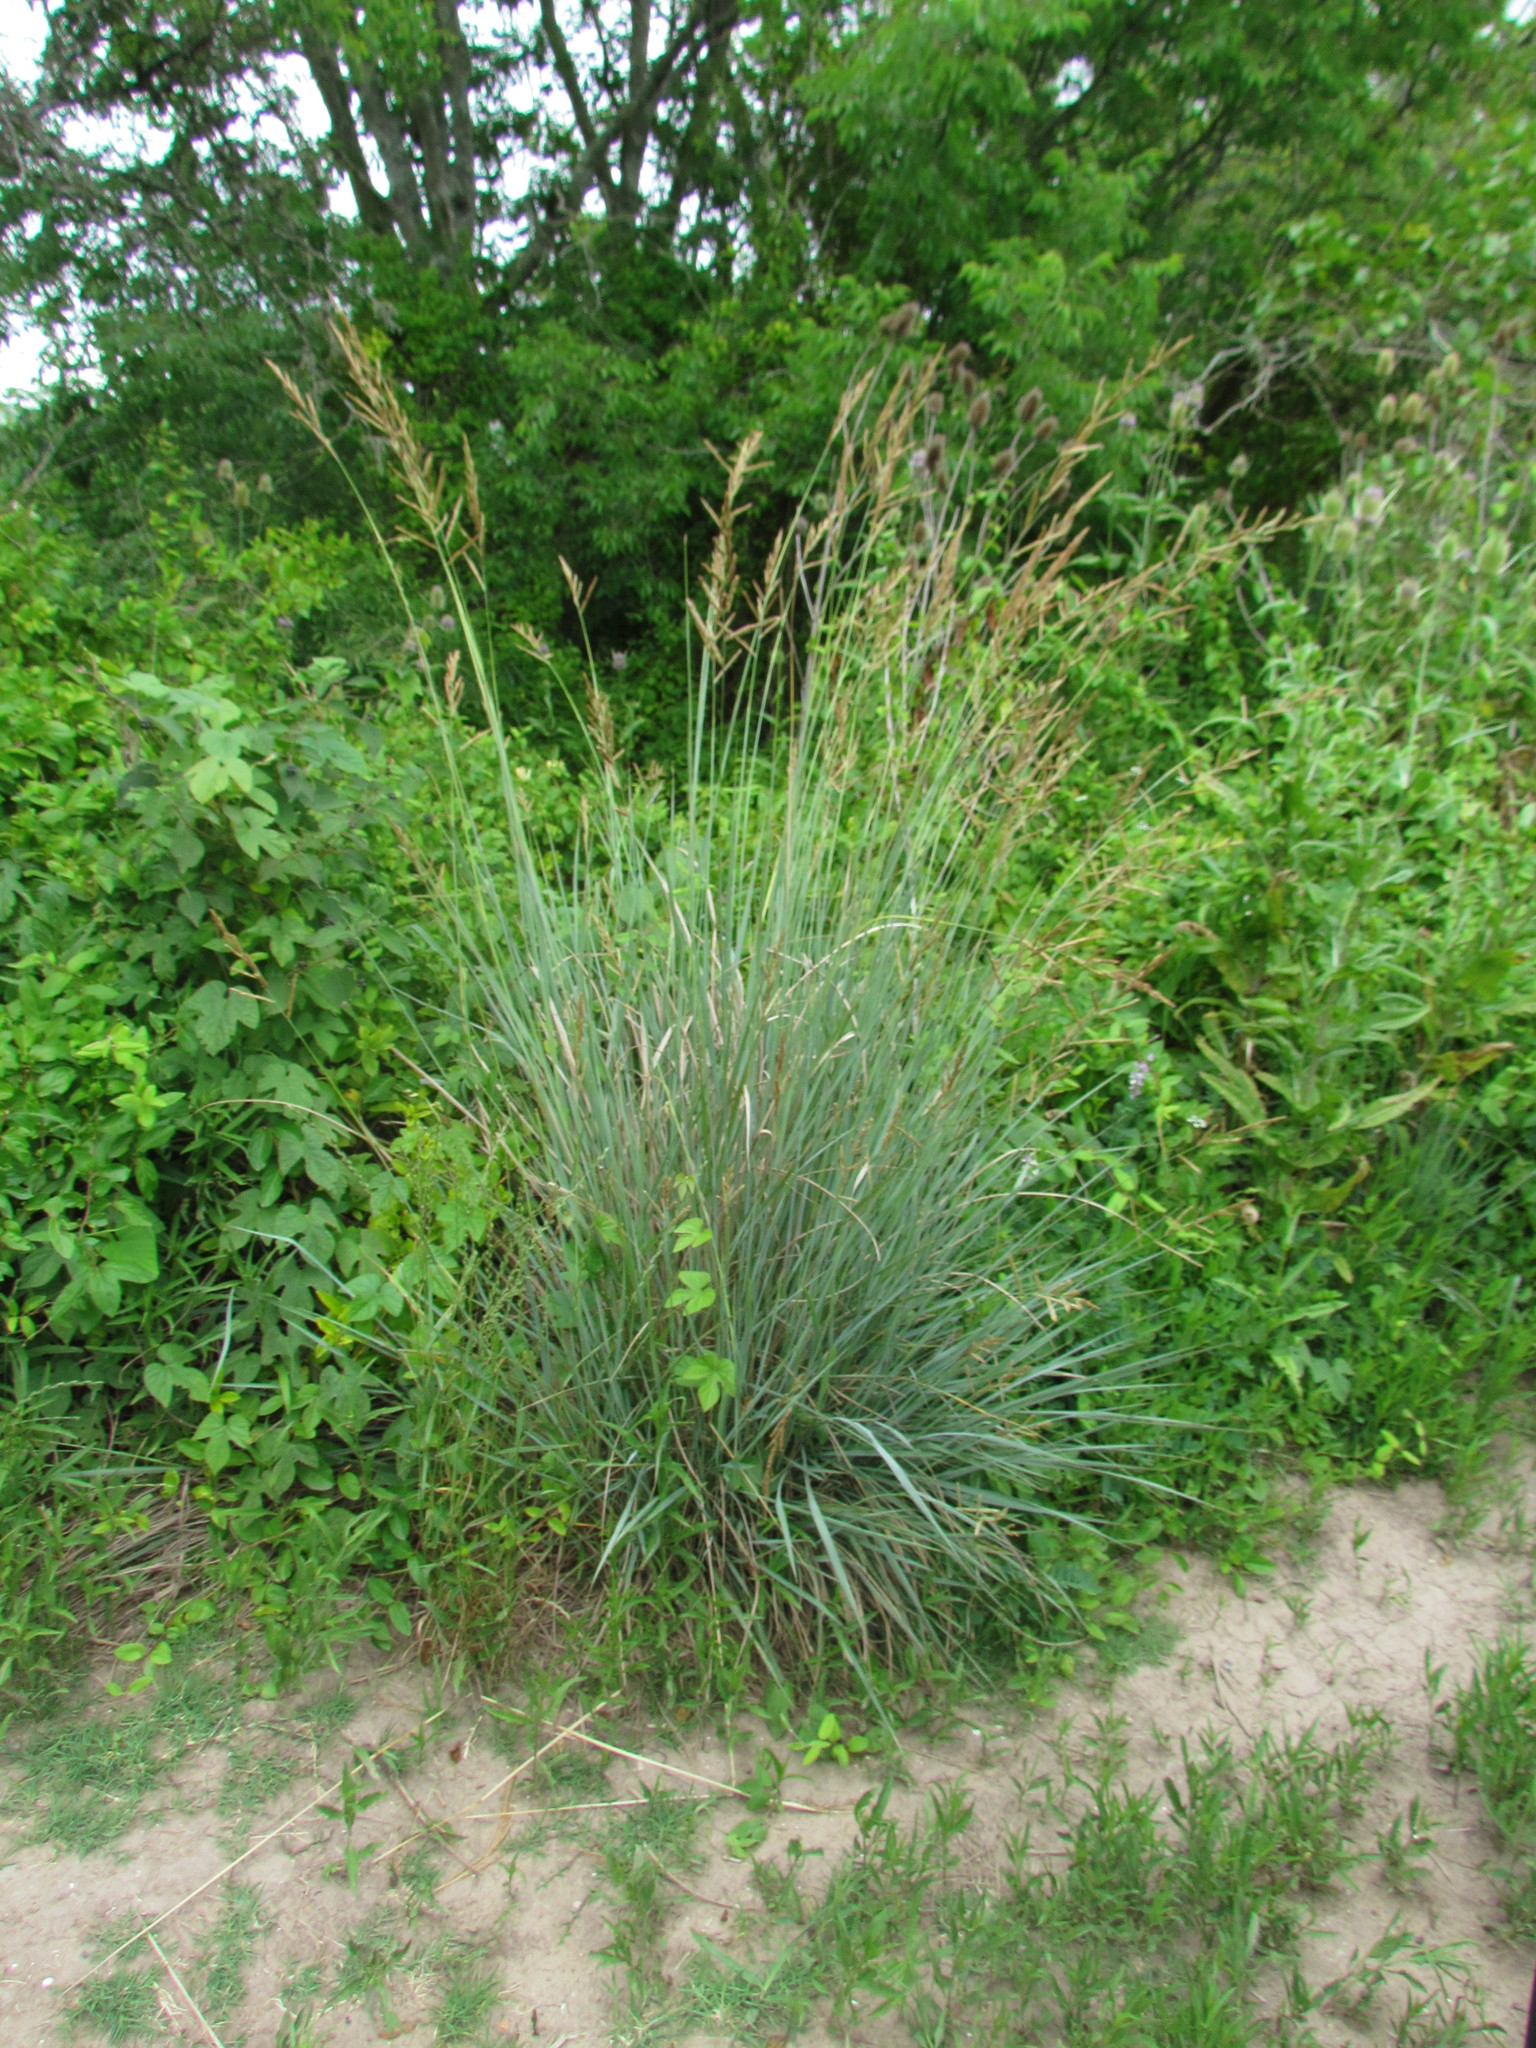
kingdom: Plantae
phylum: Tracheophyta
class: Liliopsida
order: Poales
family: Poaceae
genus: Paspalum
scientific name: Paspalum quadrifarium
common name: Tussock paspalum
